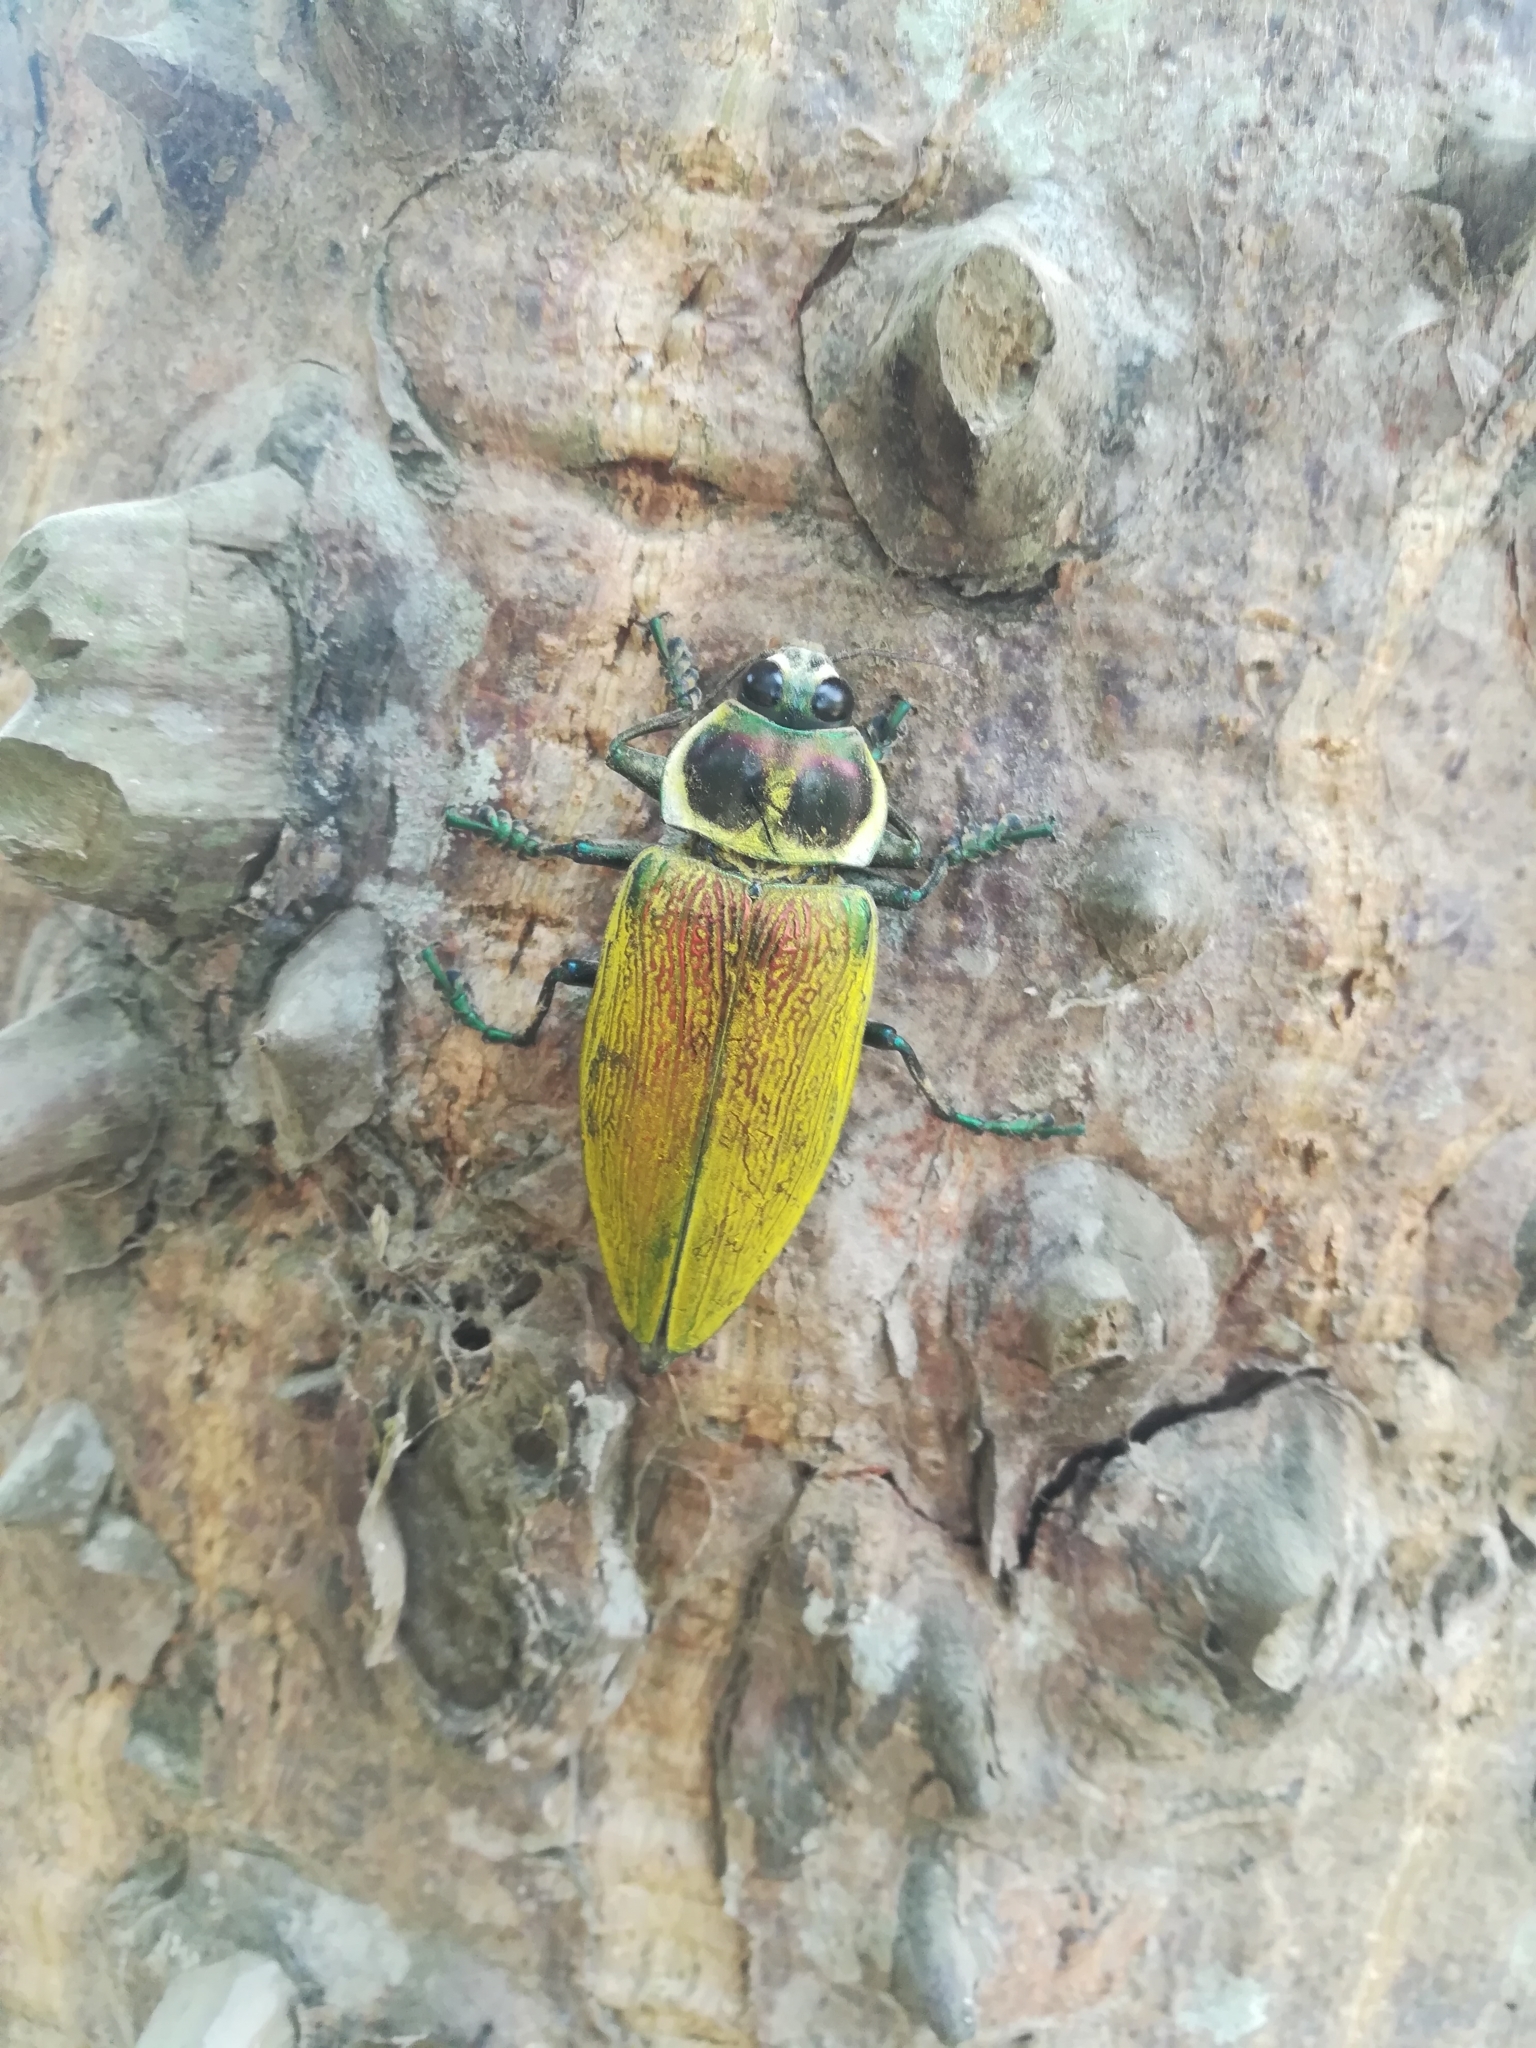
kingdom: Animalia
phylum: Arthropoda
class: Insecta
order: Coleoptera
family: Buprestidae
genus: Euchroma
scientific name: Euchroma giganteum
